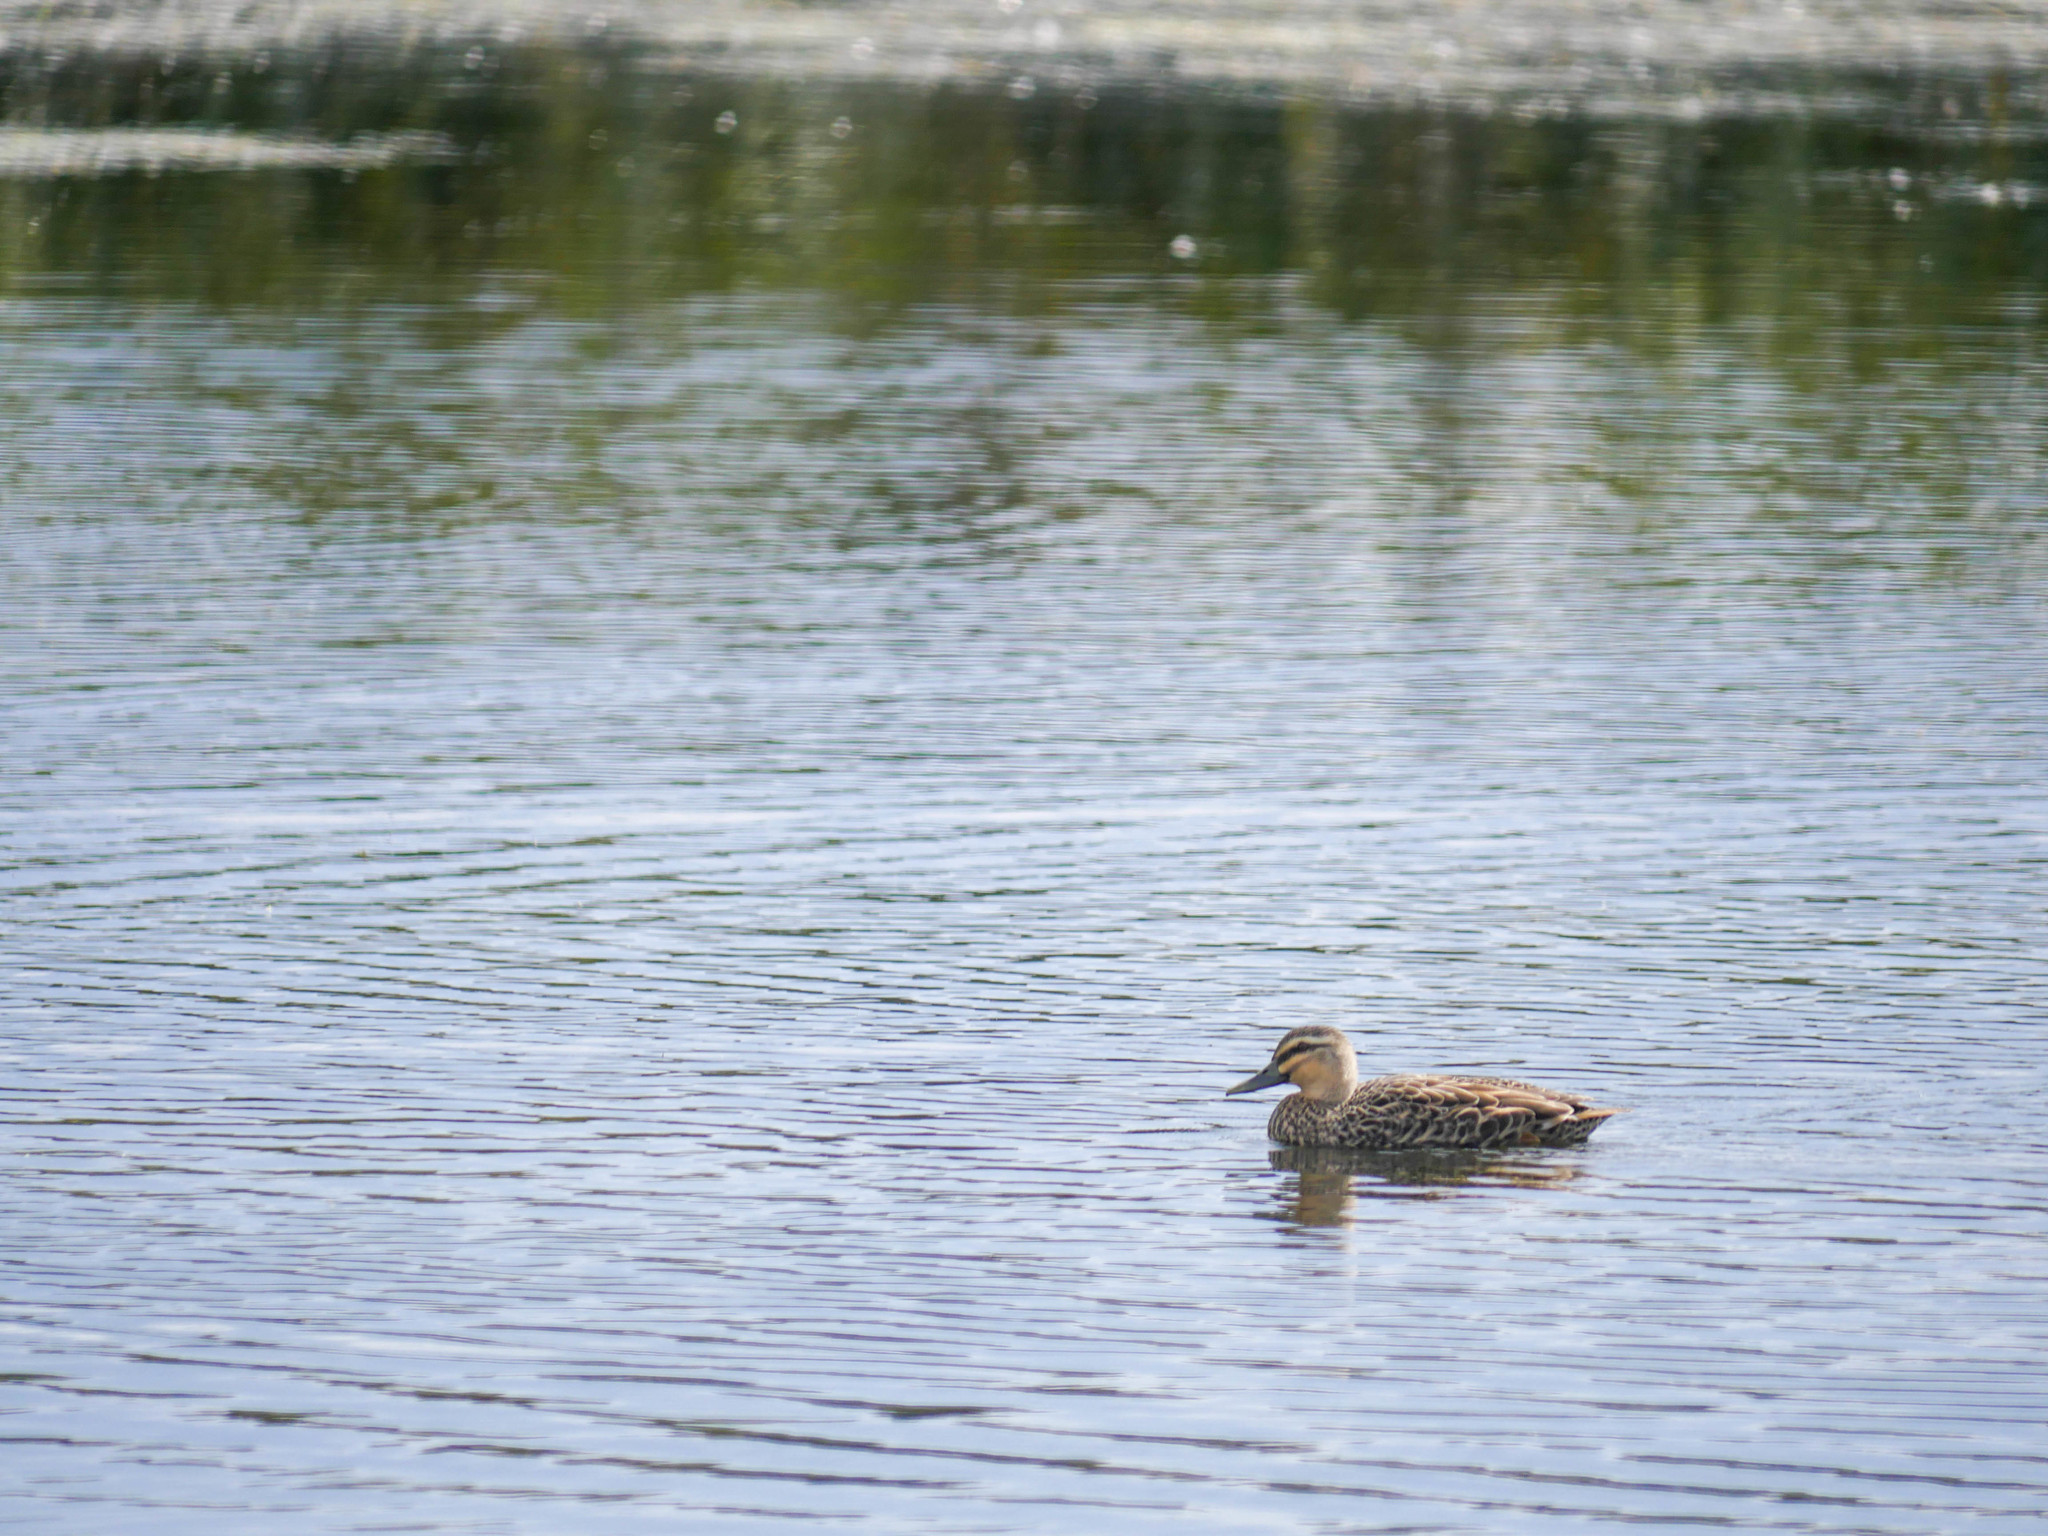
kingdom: Animalia
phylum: Chordata
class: Aves
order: Anseriformes
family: Anatidae
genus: Anas
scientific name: Anas
